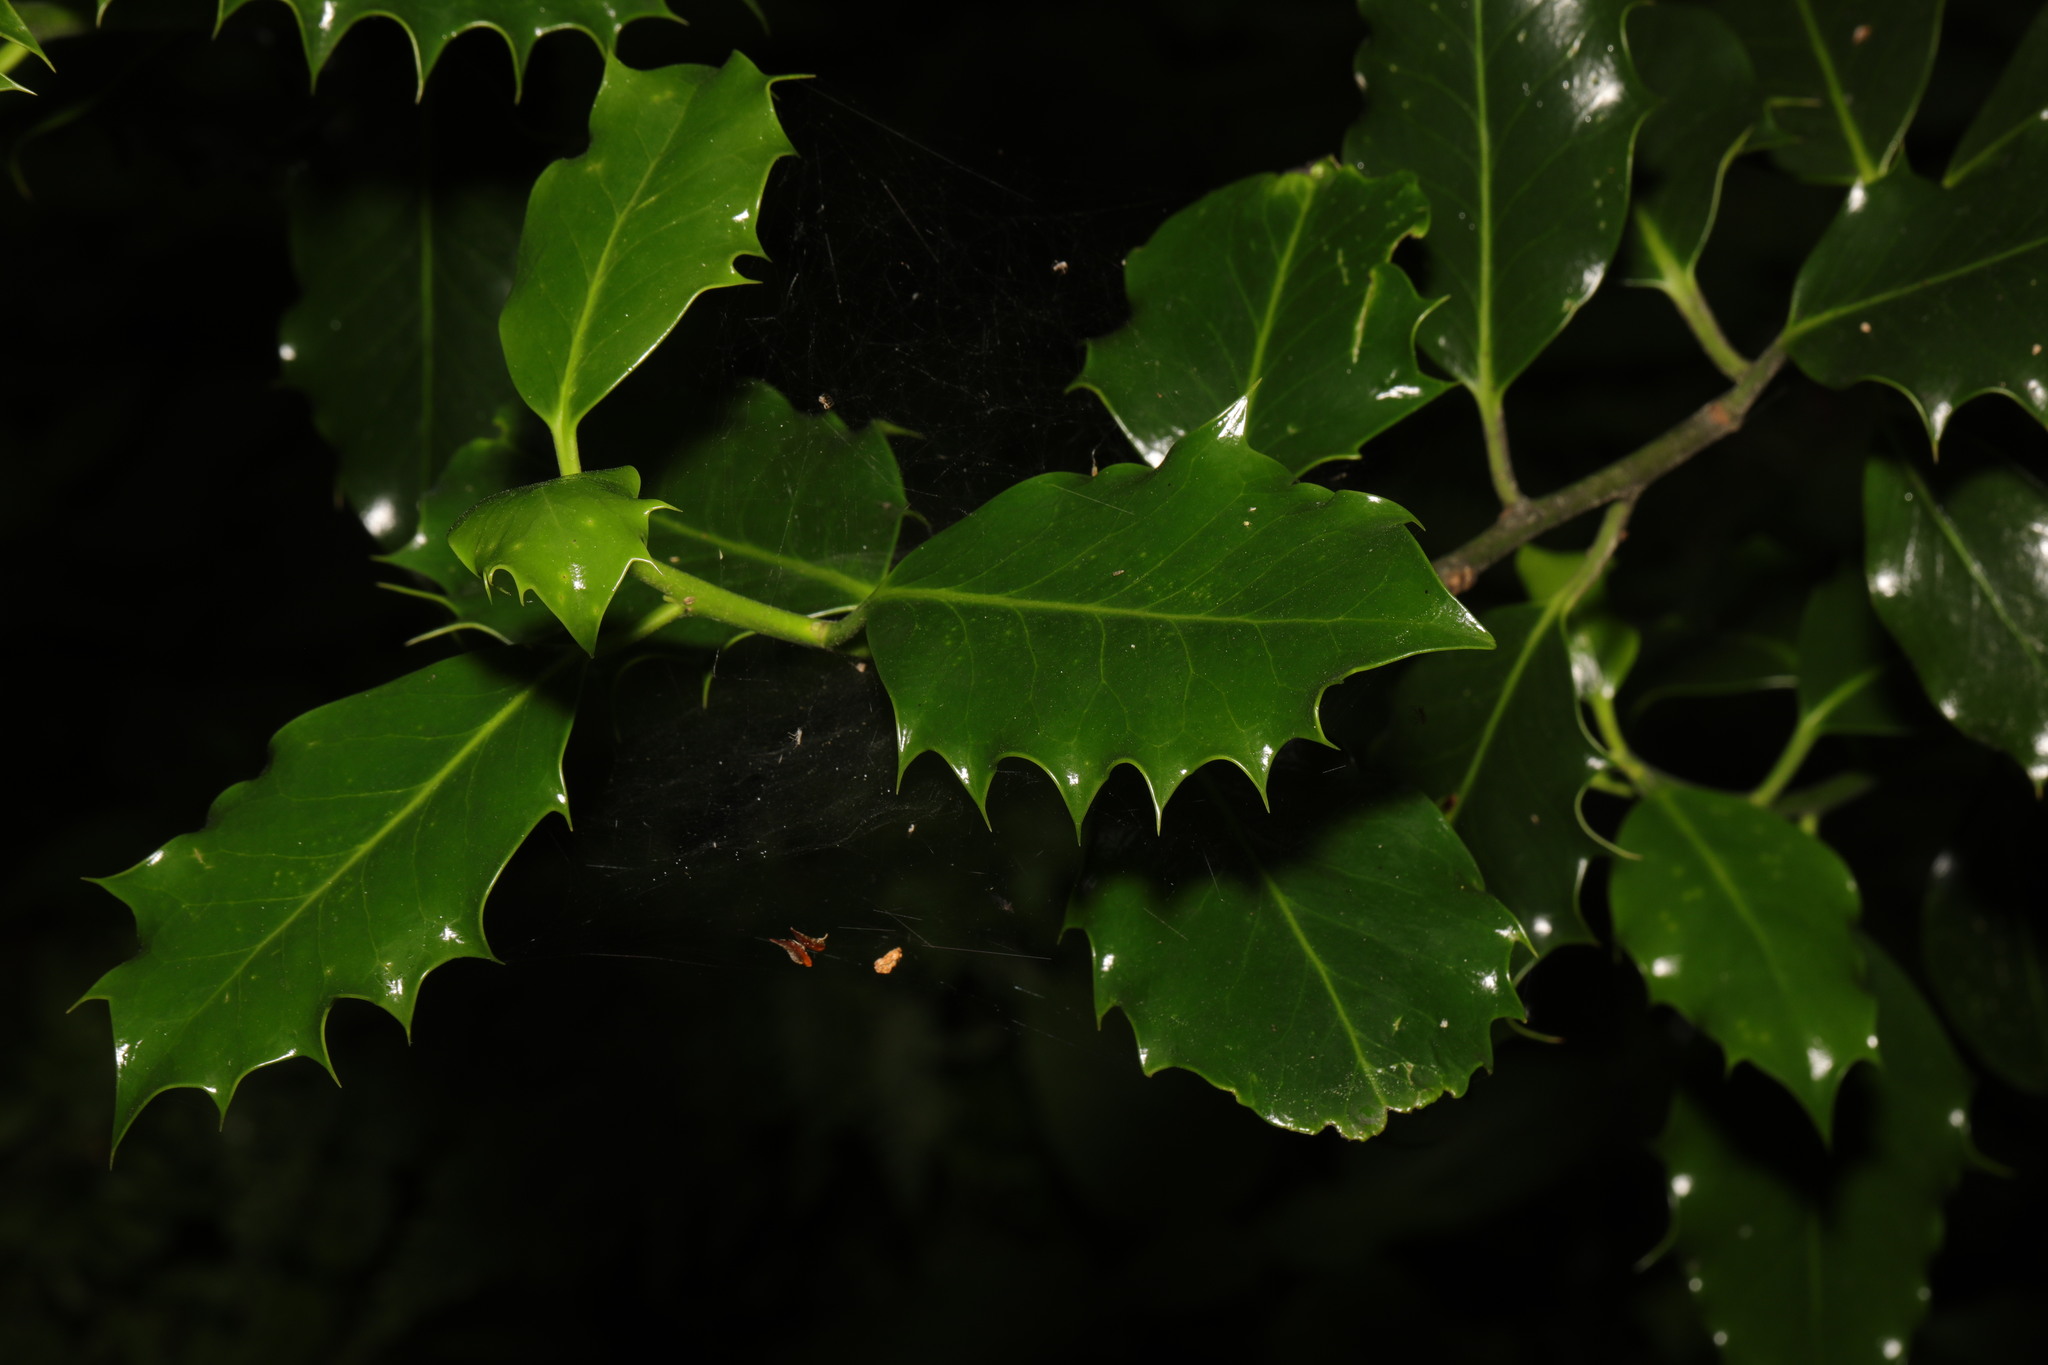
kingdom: Plantae
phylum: Tracheophyta
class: Magnoliopsida
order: Aquifoliales
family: Aquifoliaceae
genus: Ilex
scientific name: Ilex aquifolium
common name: English holly
